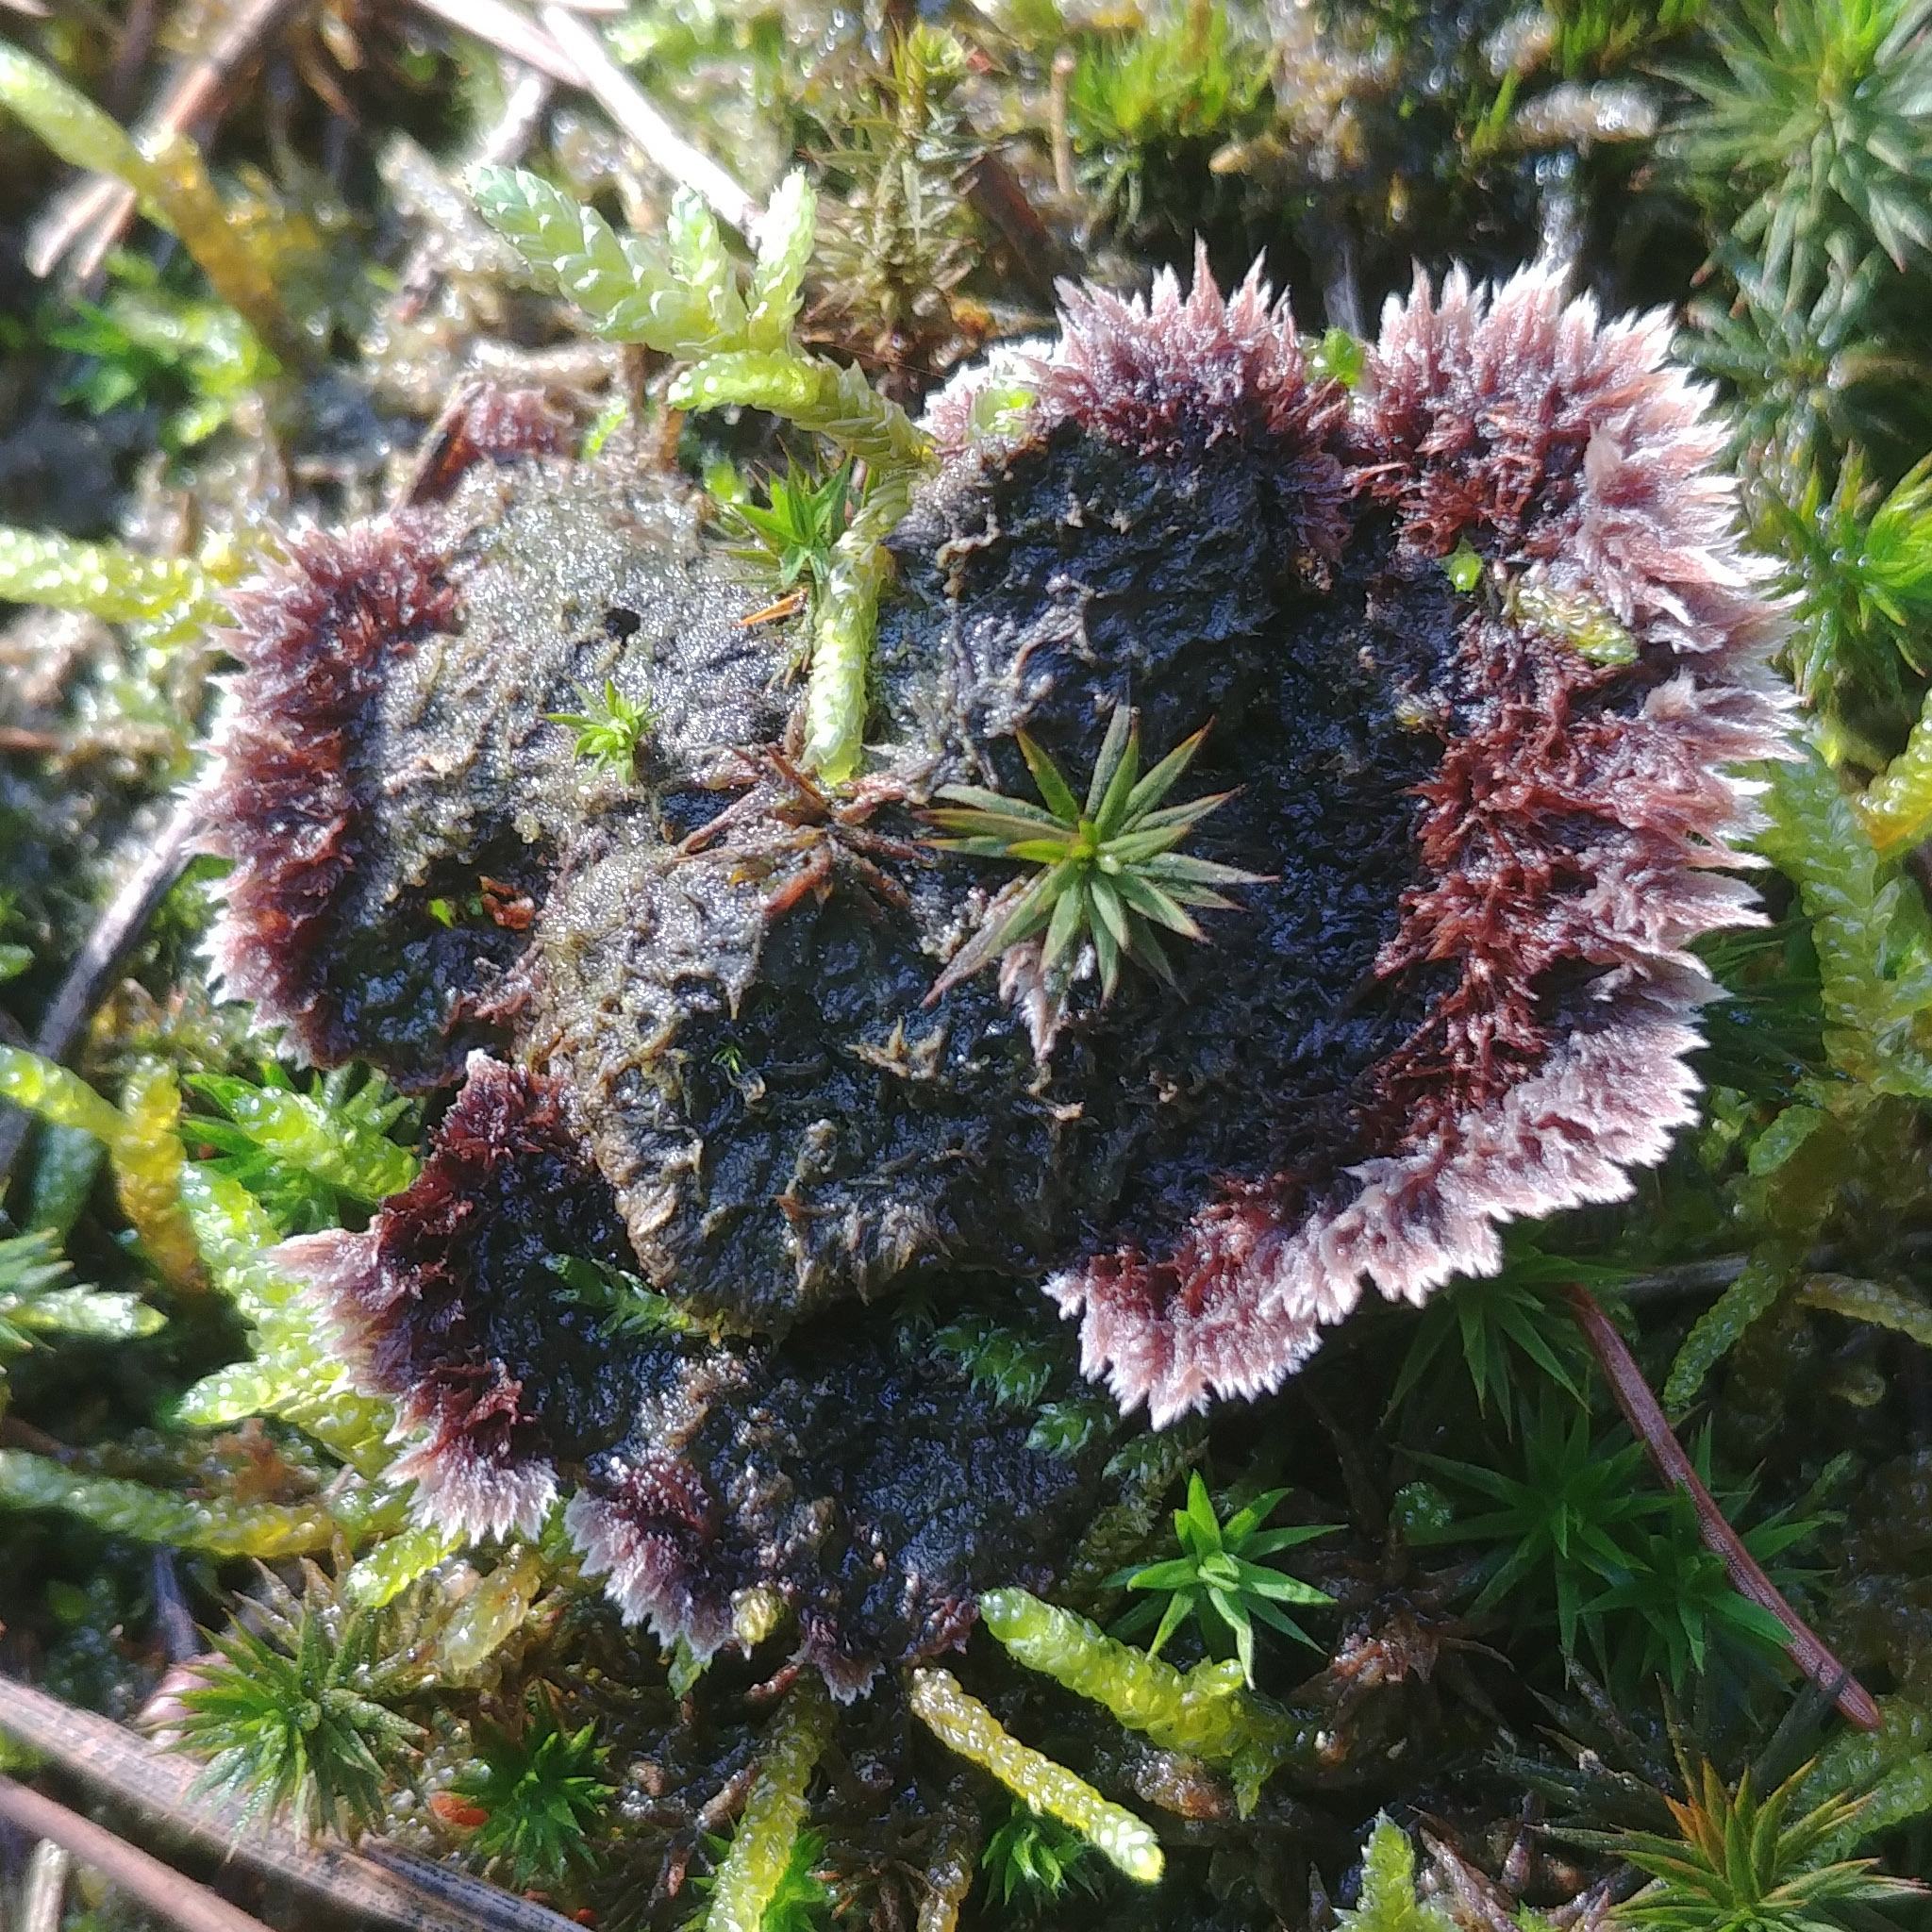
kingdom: Fungi
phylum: Basidiomycota
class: Agaricomycetes
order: Thelephorales
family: Thelephoraceae
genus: Thelephora
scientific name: Thelephora terrestris
